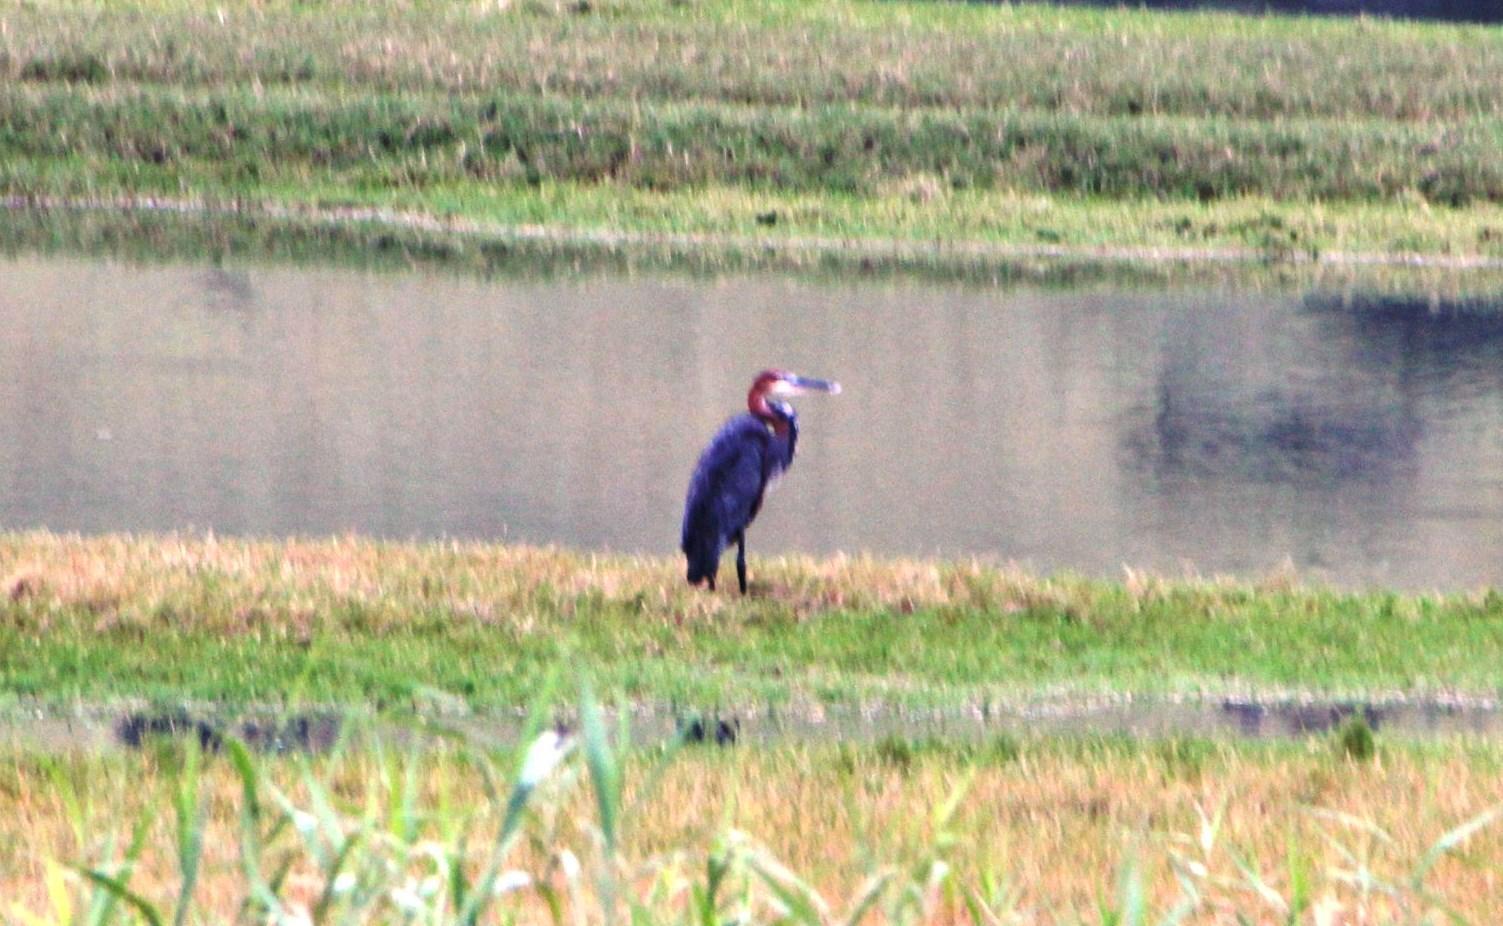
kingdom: Animalia
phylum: Chordata
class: Aves
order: Pelecaniformes
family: Ardeidae
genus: Ardea
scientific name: Ardea goliath
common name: Goliath heron
